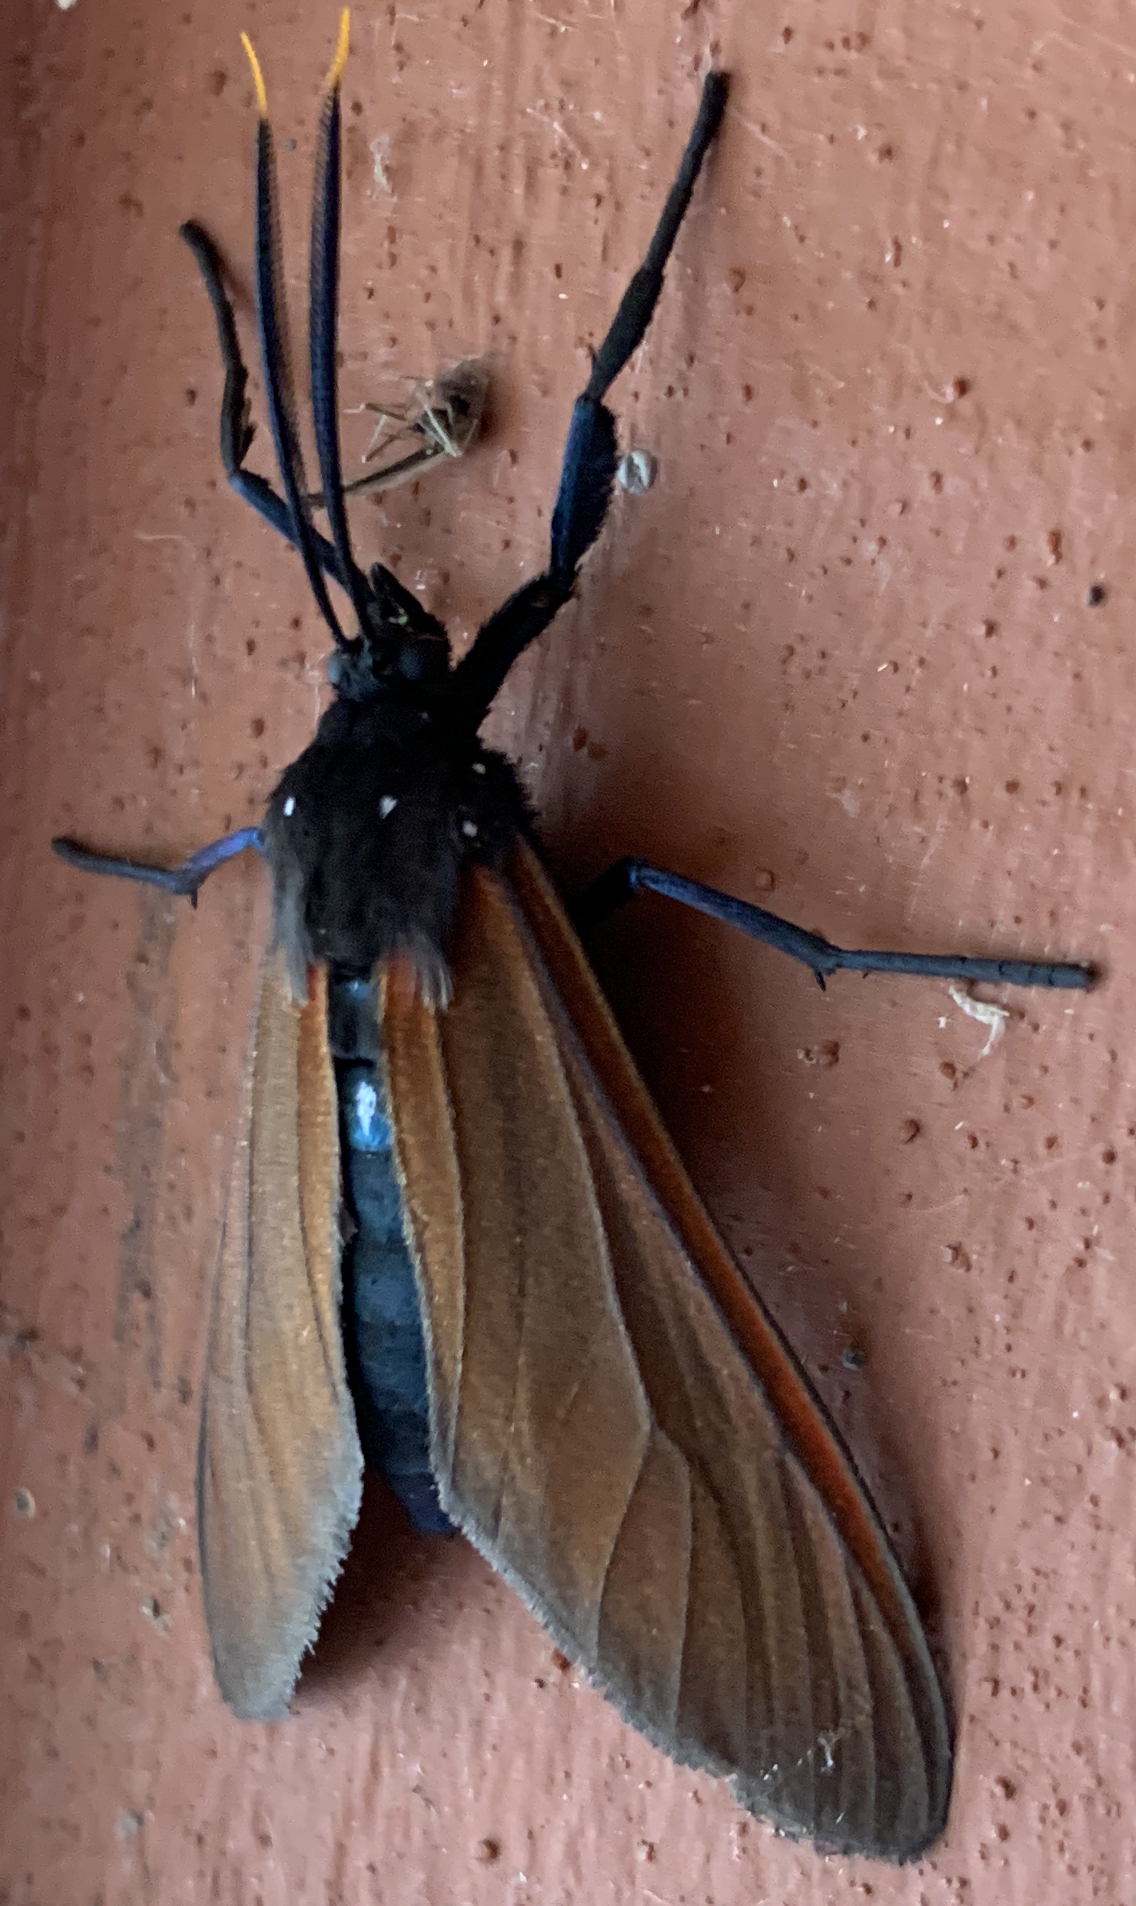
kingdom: Animalia
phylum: Arthropoda
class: Insecta
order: Lepidoptera
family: Erebidae
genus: Empyreuma
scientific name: Empyreuma pugione
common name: Spotted oleander caterpillar moth
